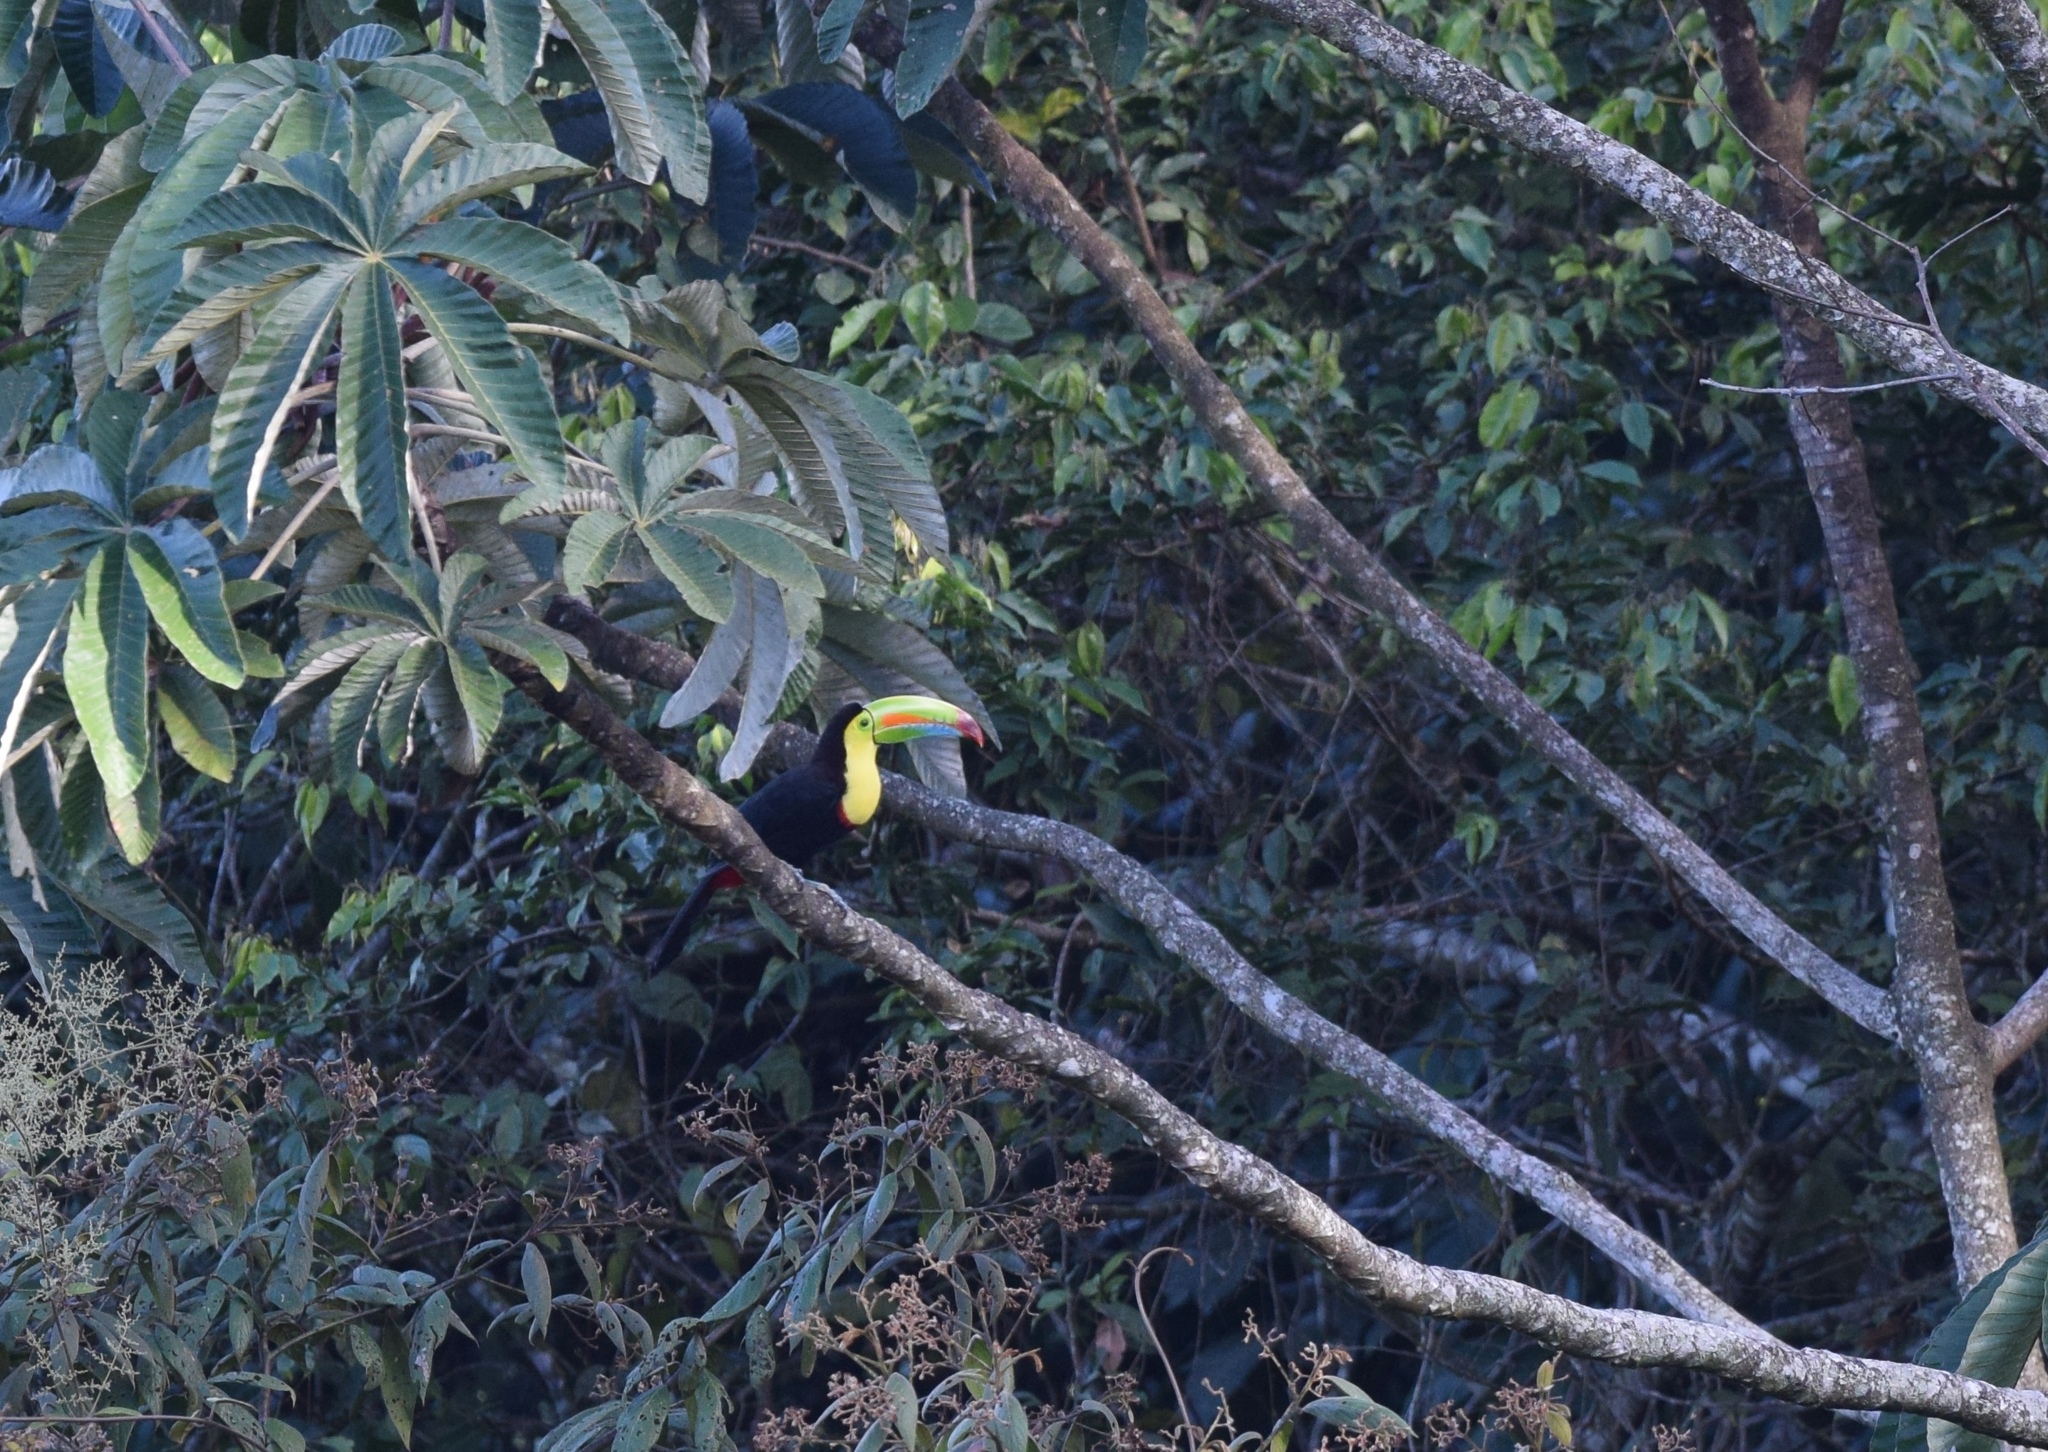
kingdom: Animalia
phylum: Chordata
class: Aves
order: Piciformes
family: Ramphastidae
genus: Ramphastos
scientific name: Ramphastos sulfuratus
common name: Keel-billed toucan
